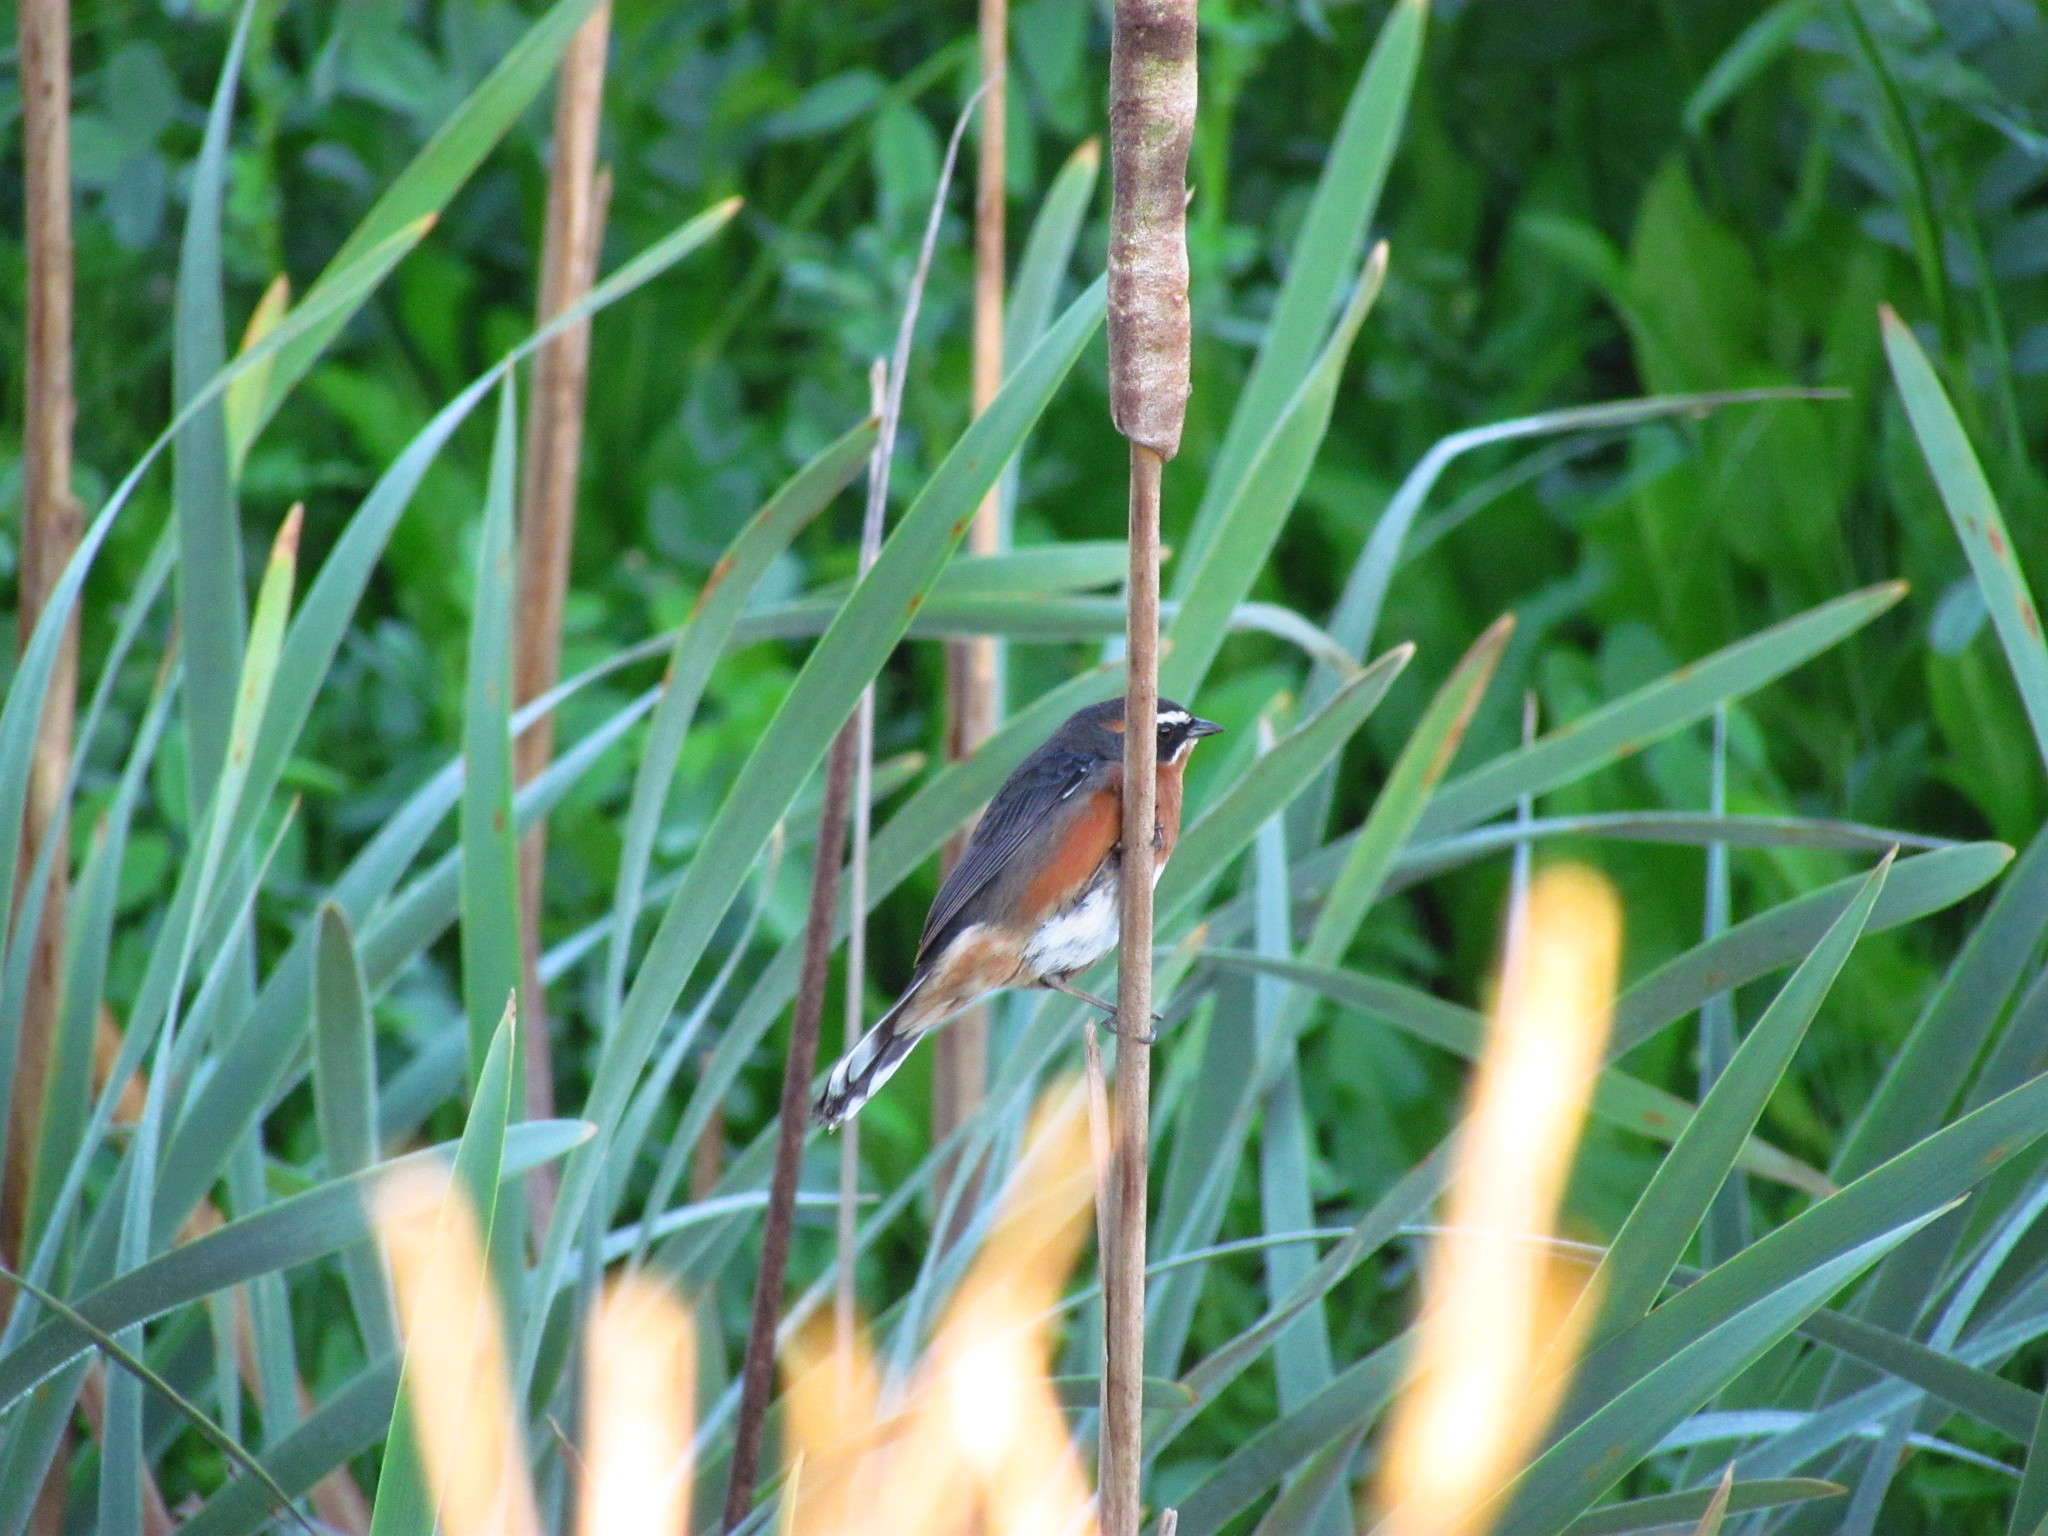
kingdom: Animalia
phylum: Chordata
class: Aves
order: Passeriformes
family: Thraupidae
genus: Poospiza
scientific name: Poospiza nigrorufa
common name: Black-and-rufous warbling finch
